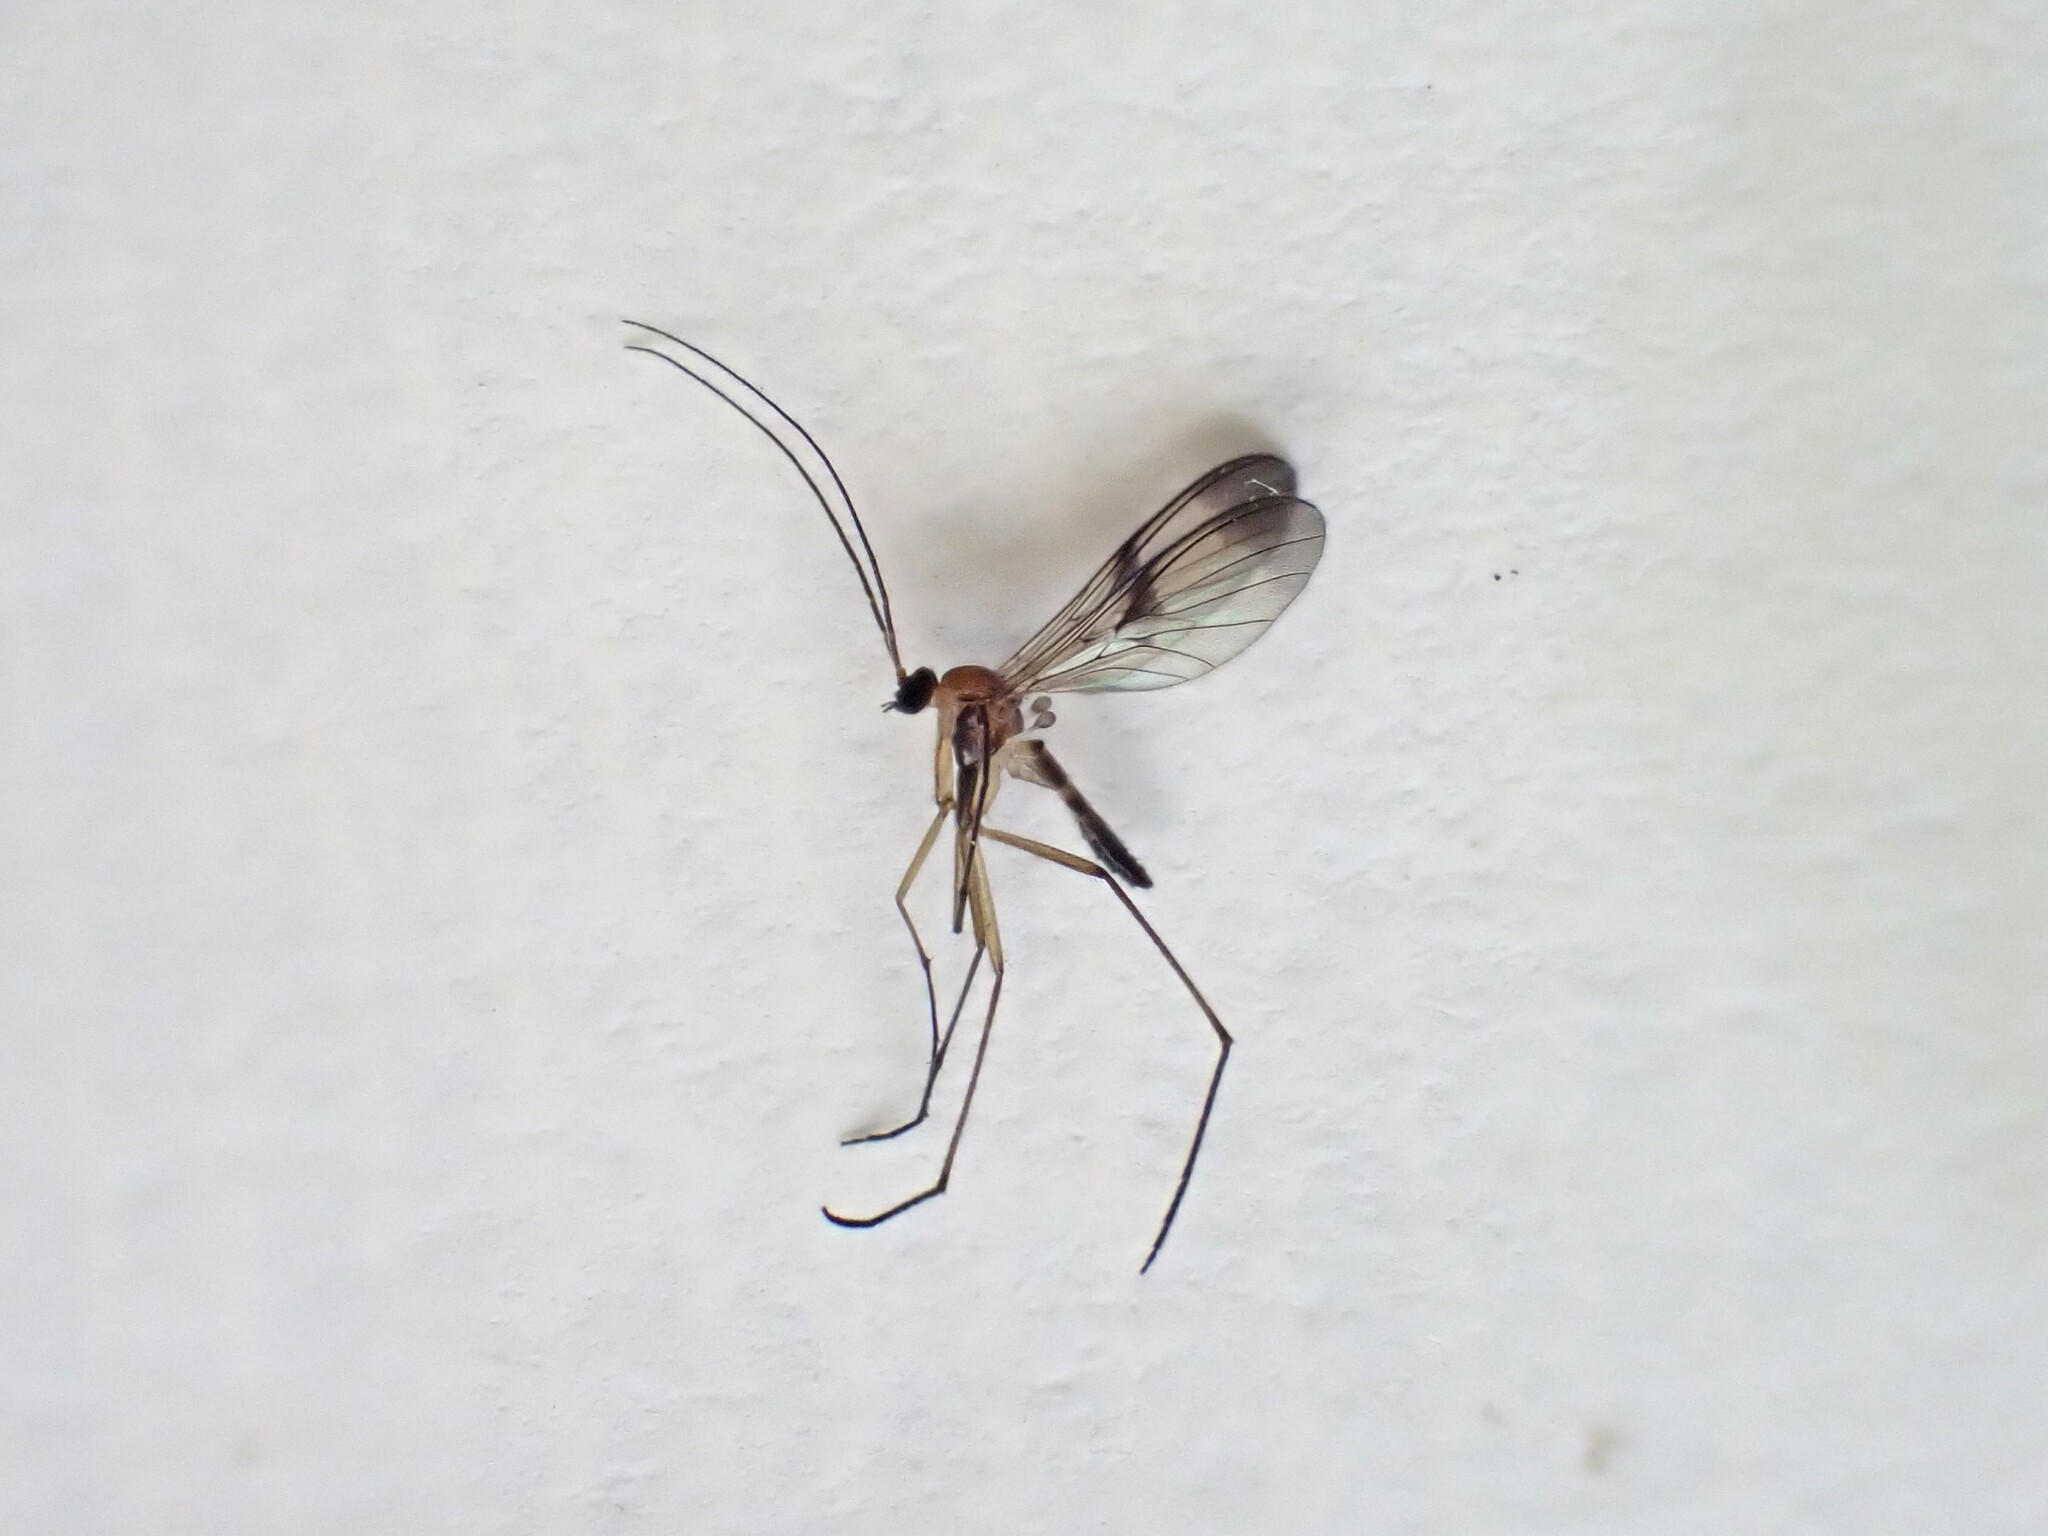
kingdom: Animalia
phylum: Arthropoda
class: Insecta
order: Diptera
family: Keroplatidae
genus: Macrocera
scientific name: Macrocera scoparia
